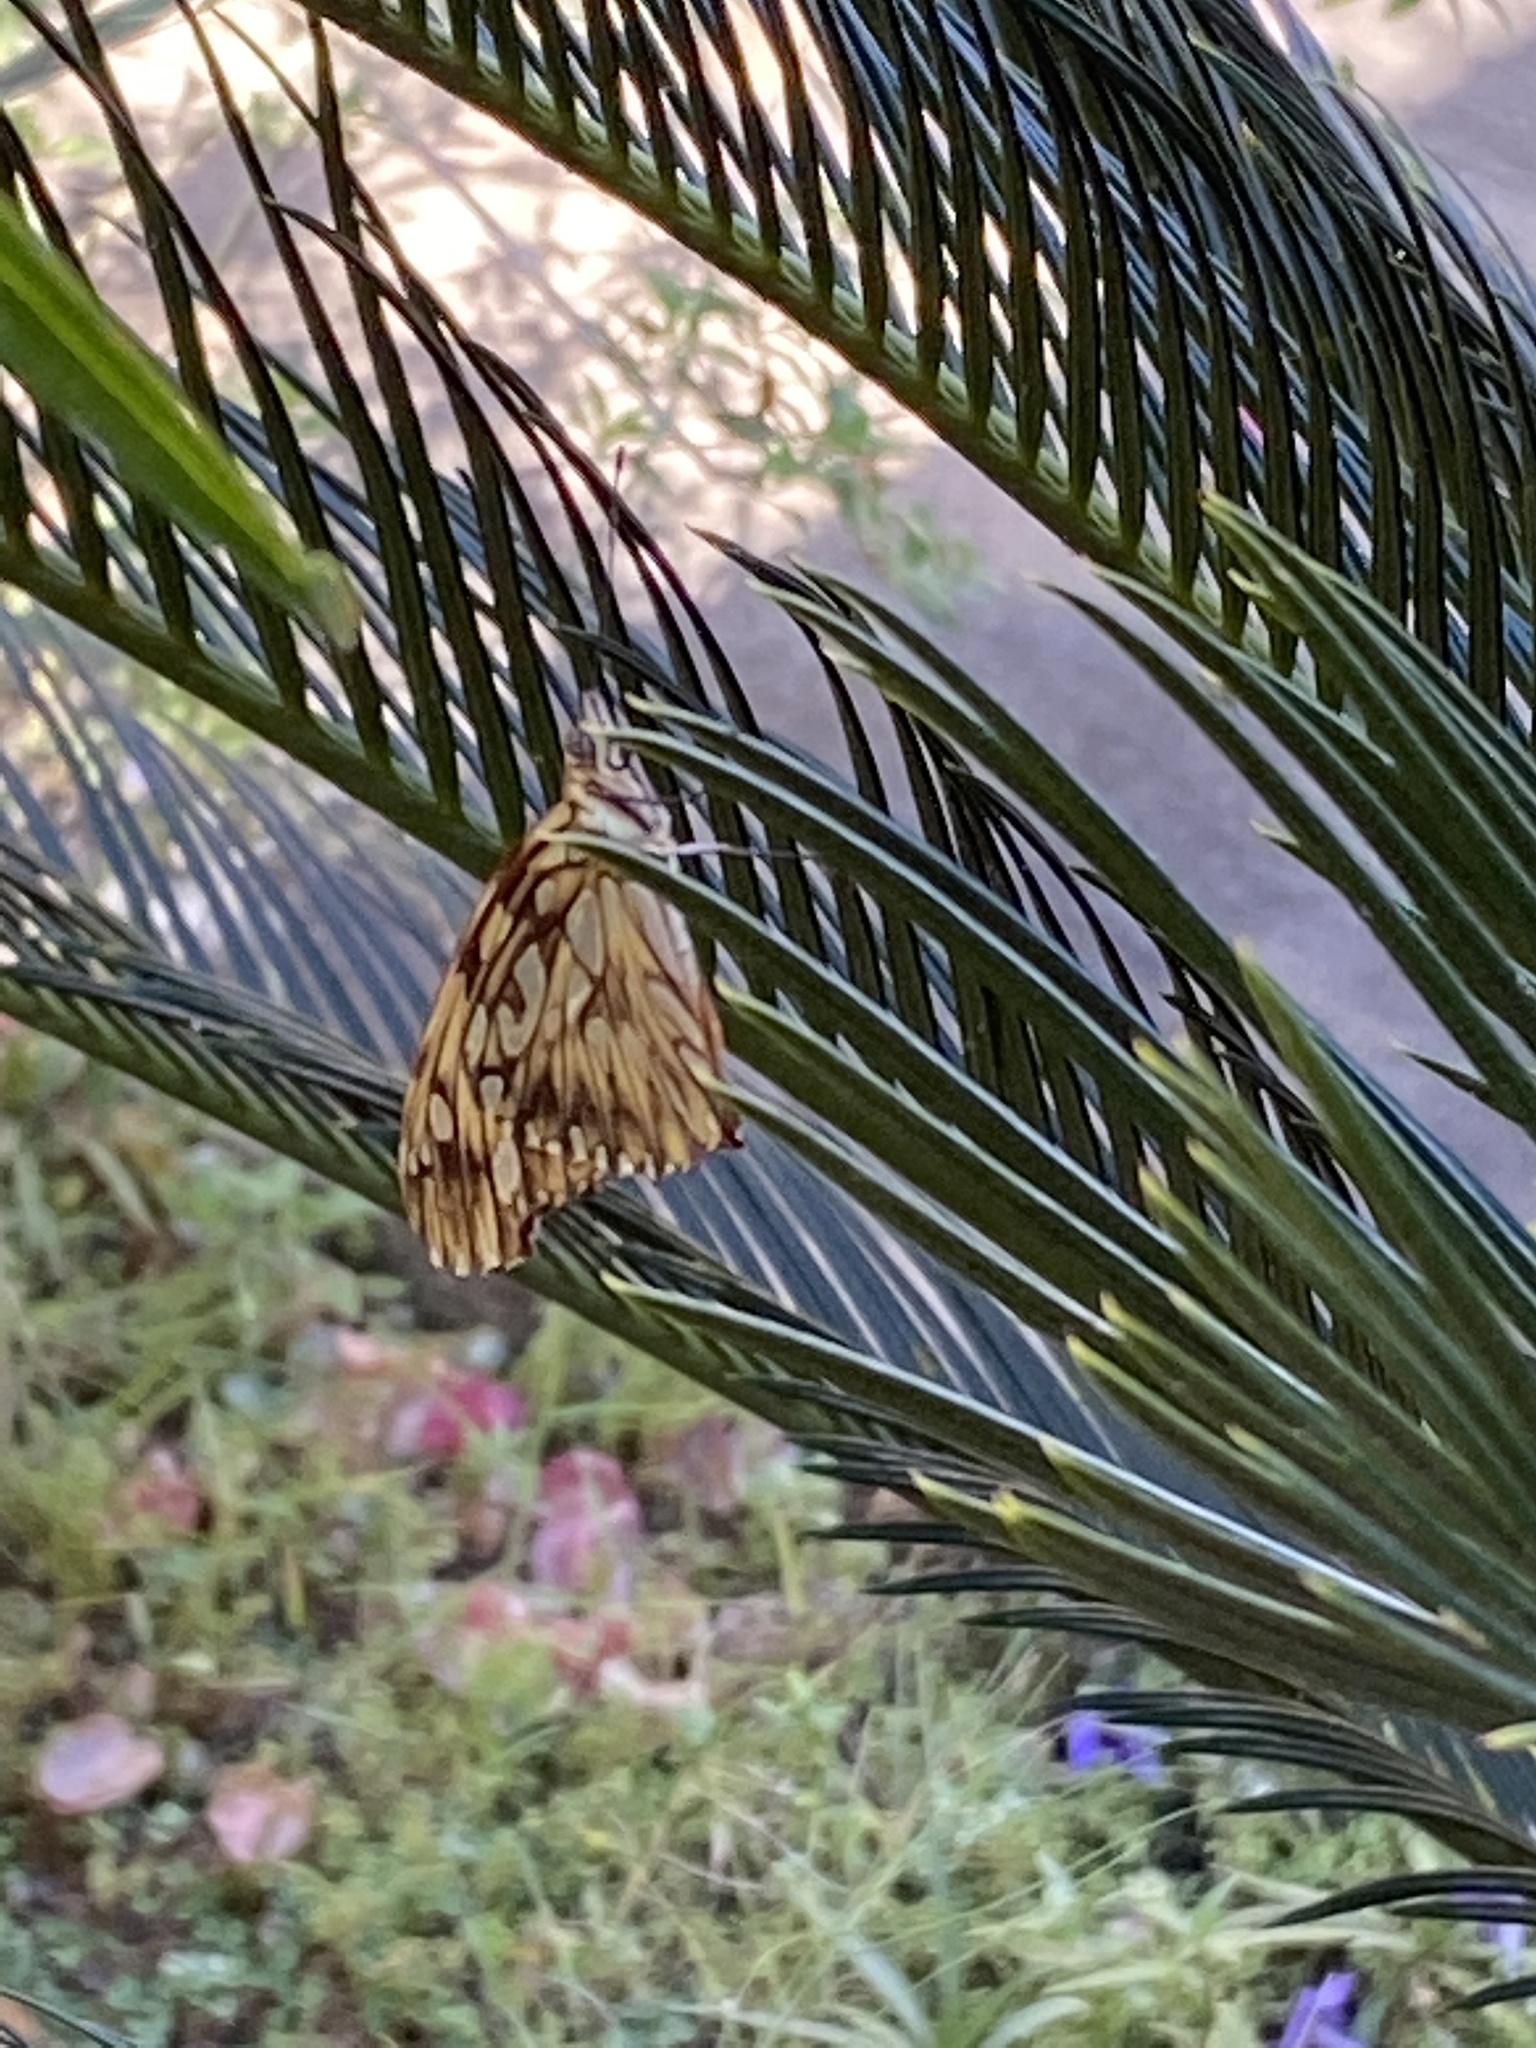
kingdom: Animalia
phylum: Arthropoda
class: Insecta
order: Lepidoptera
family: Nymphalidae
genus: Dione
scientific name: Dione juno
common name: Juno silverspot
